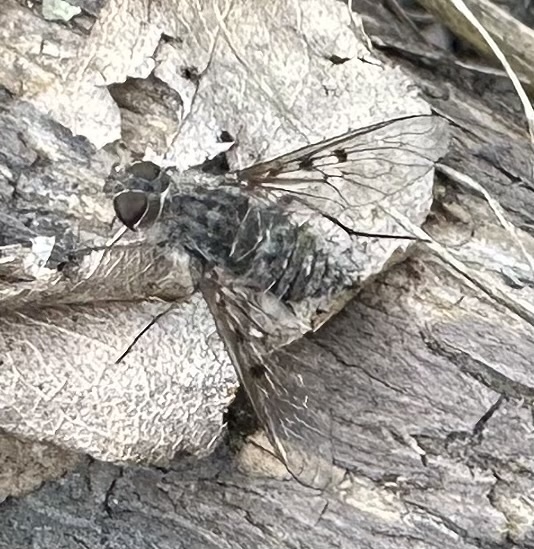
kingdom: Animalia
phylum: Arthropoda
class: Insecta
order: Diptera
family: Bombyliidae
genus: Spogostylum
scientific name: Spogostylum incisurale
